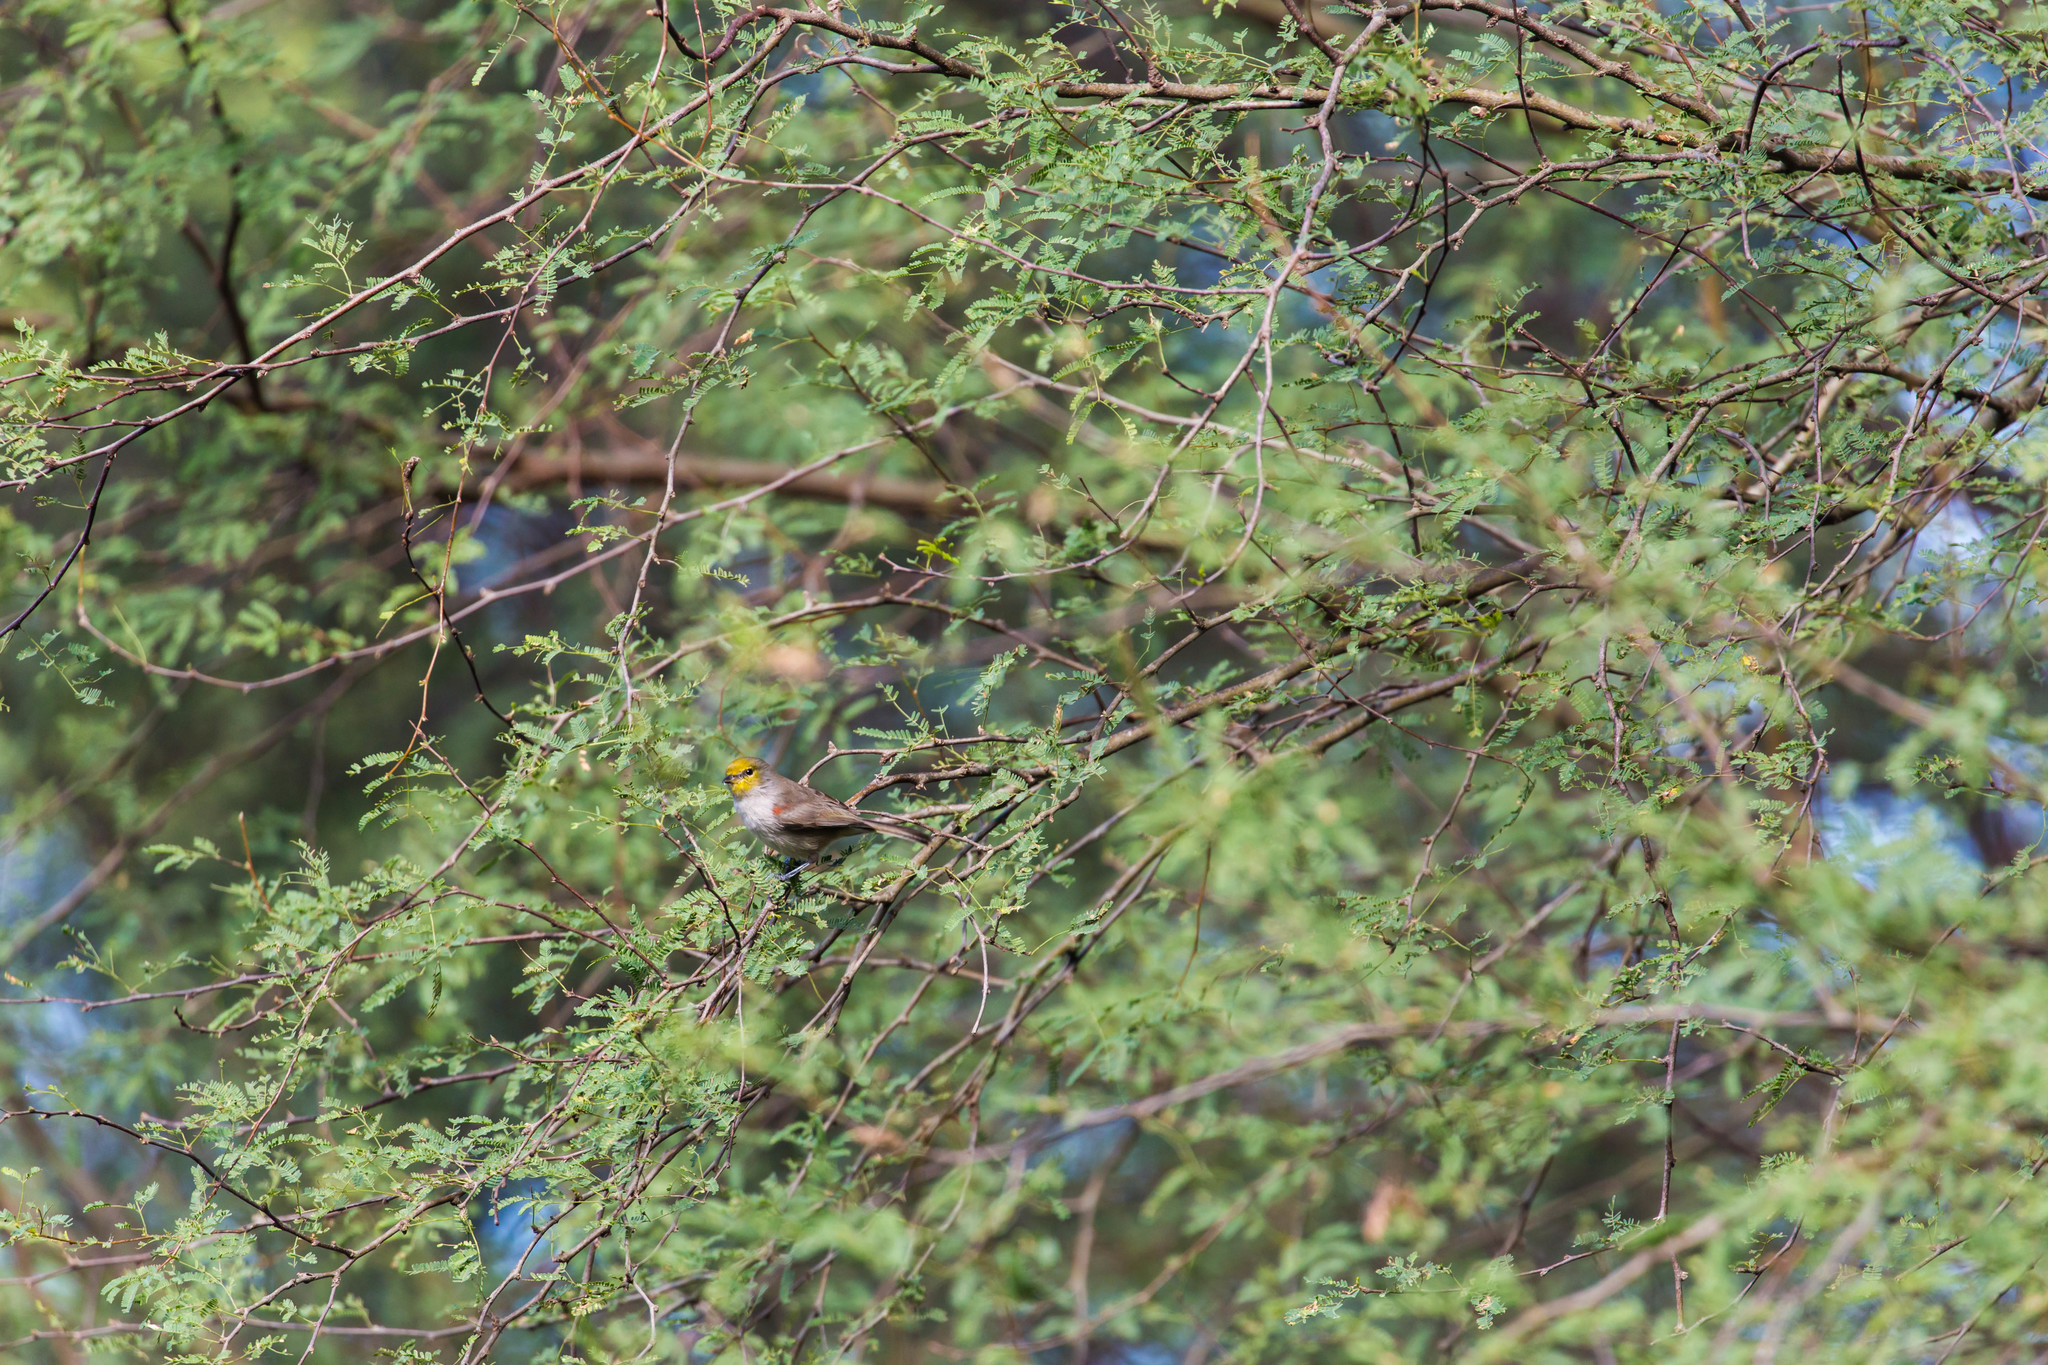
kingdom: Animalia
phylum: Chordata
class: Aves
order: Passeriformes
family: Remizidae
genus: Auriparus
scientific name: Auriparus flaviceps
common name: Verdin
